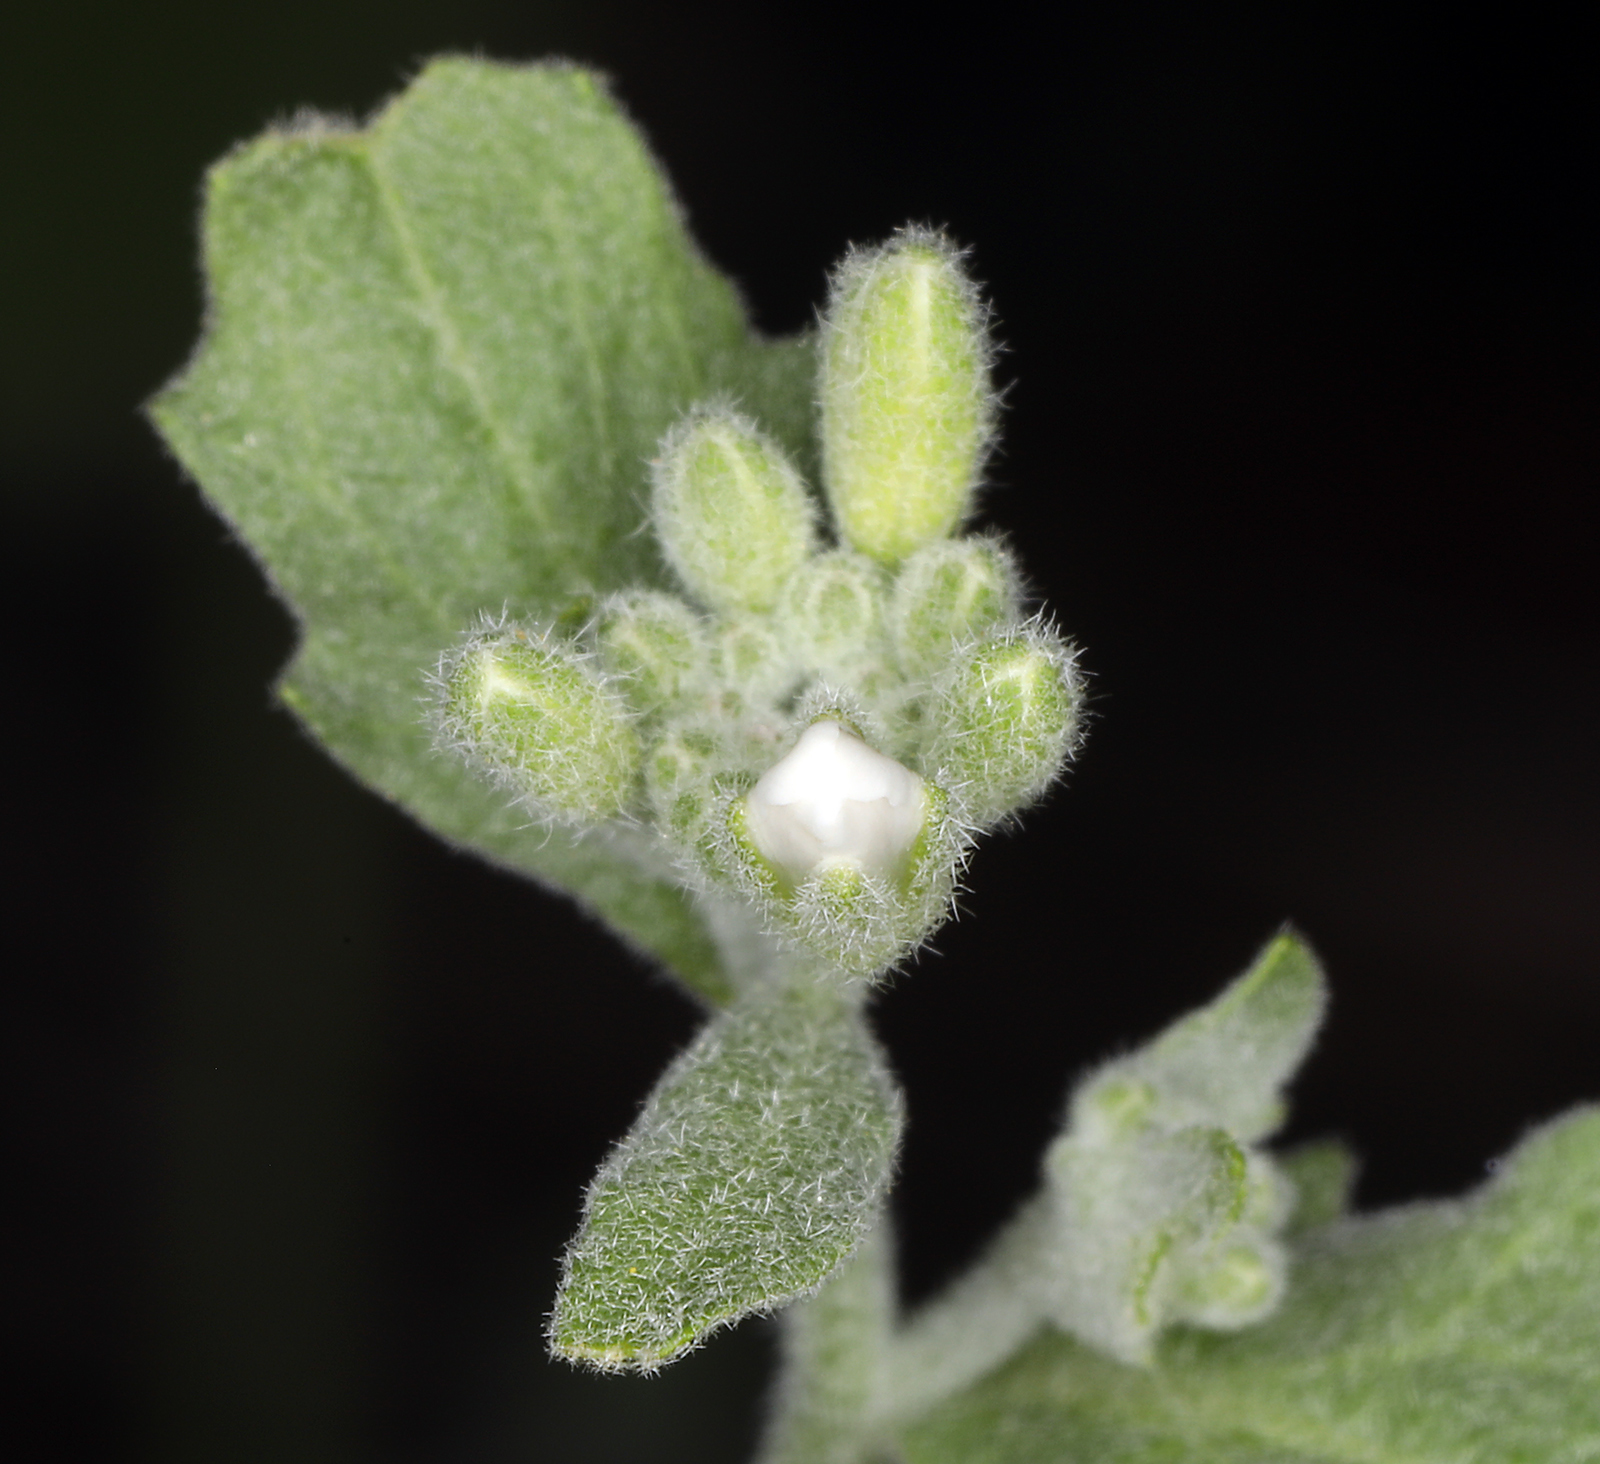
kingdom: Plantae
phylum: Tracheophyta
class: Magnoliopsida
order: Brassicales
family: Brassicaceae
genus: Halimolobos
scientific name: Halimolobos jaegeri
